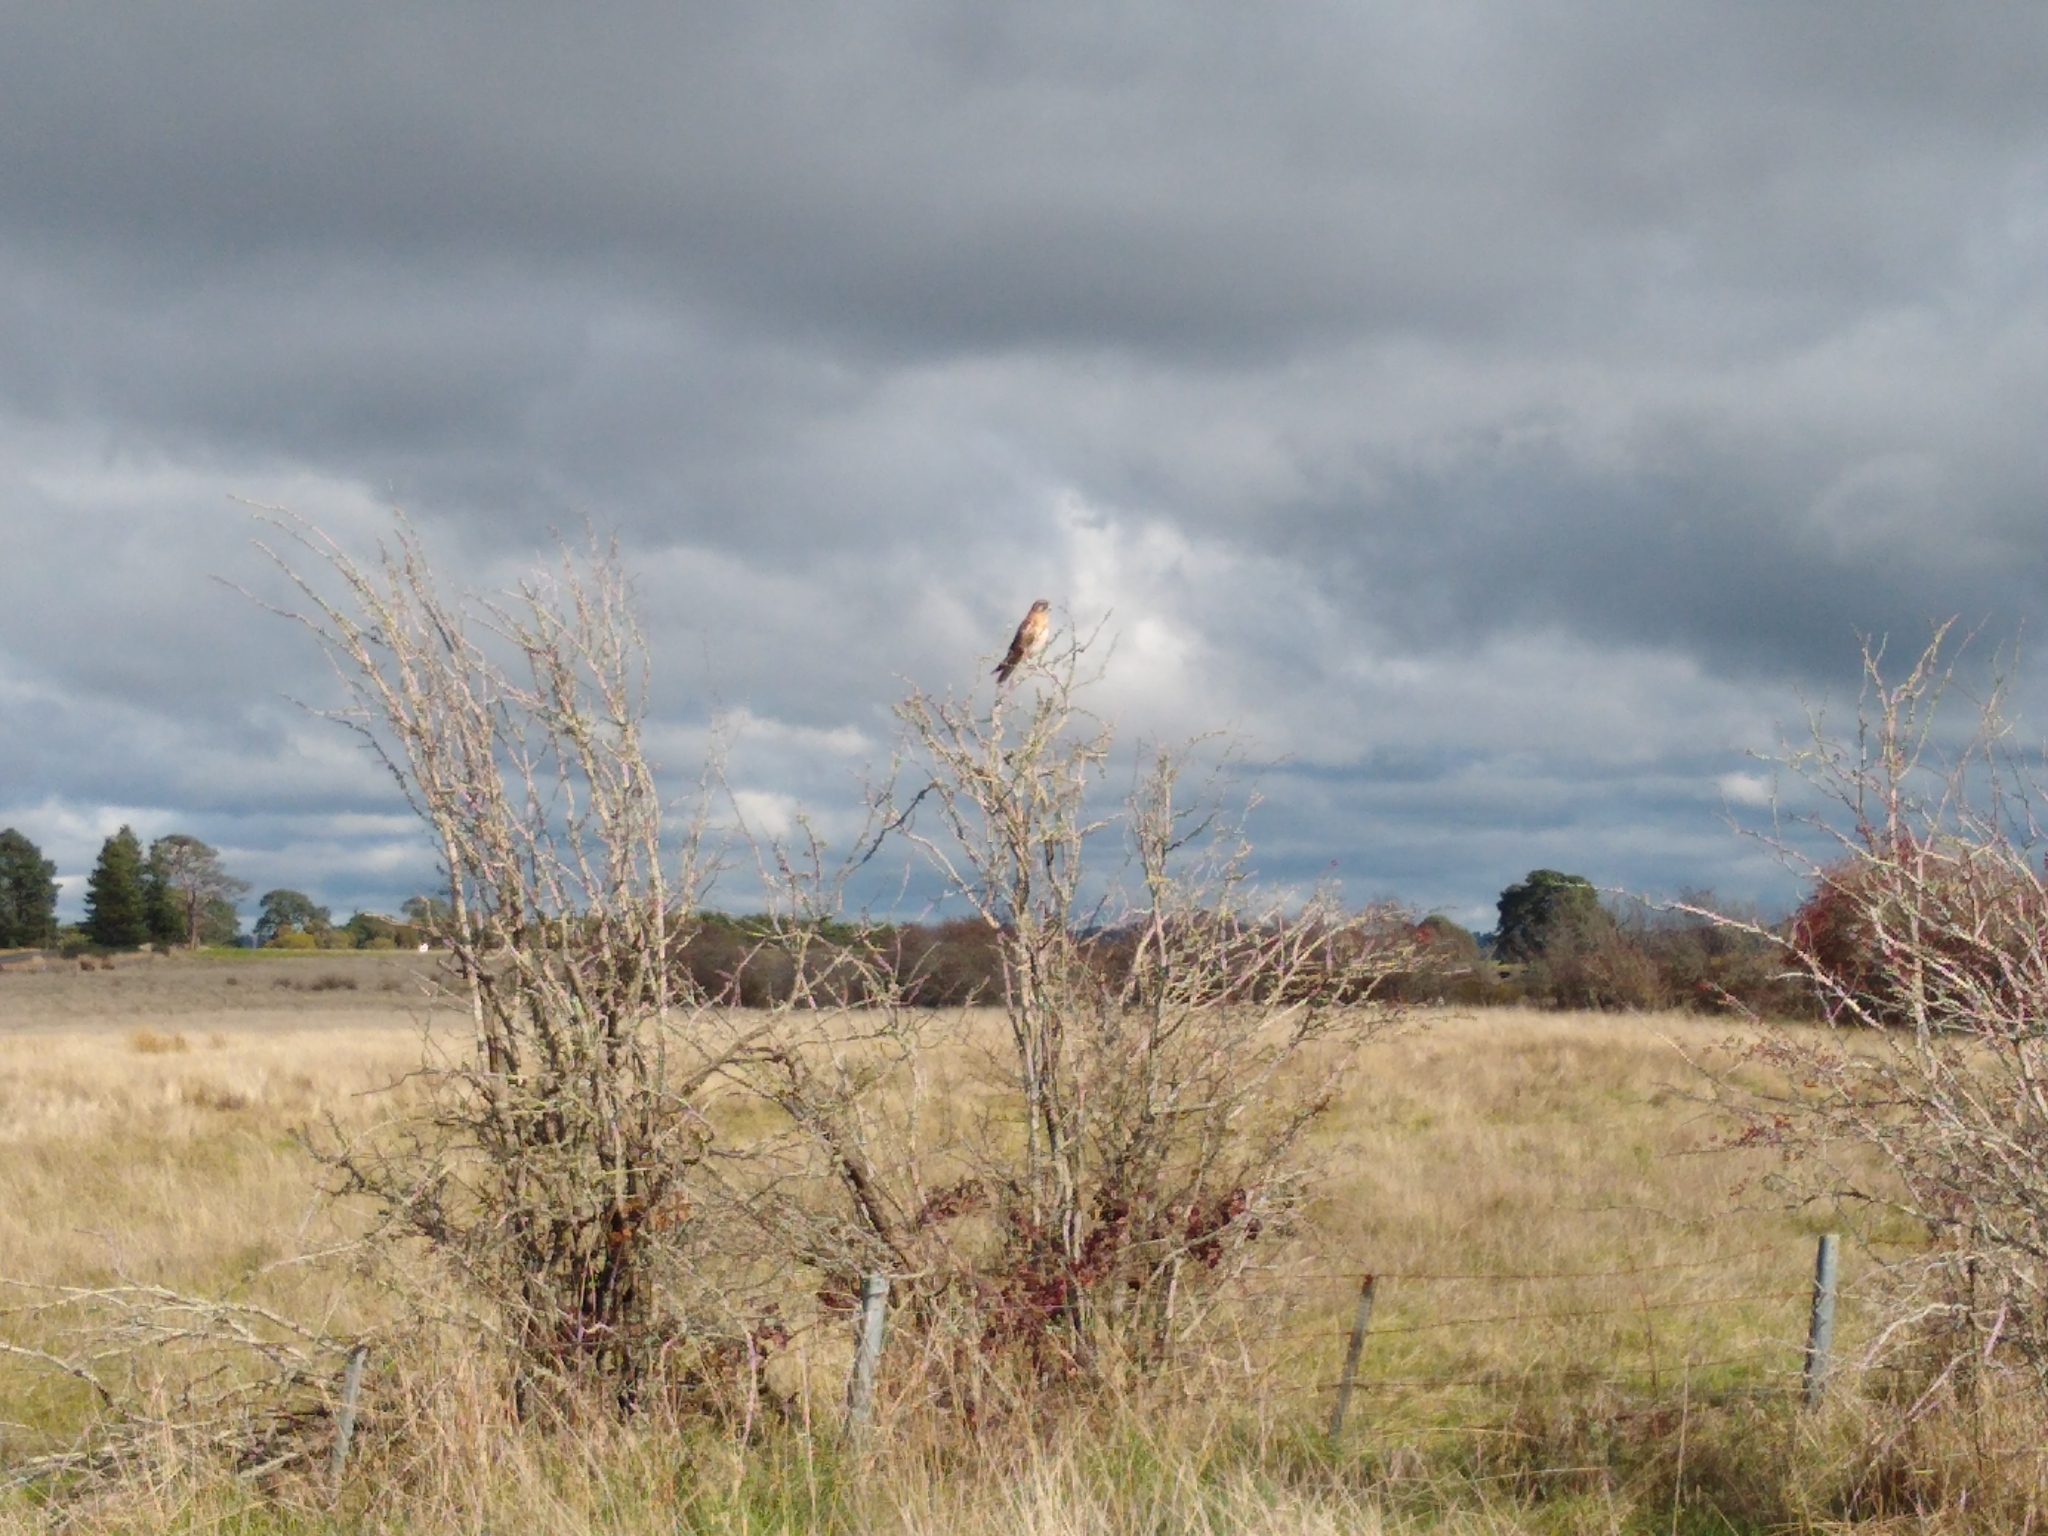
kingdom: Animalia
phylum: Chordata
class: Aves
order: Falconiformes
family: Falconidae
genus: Falco
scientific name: Falco berigora
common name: Brown falcon
